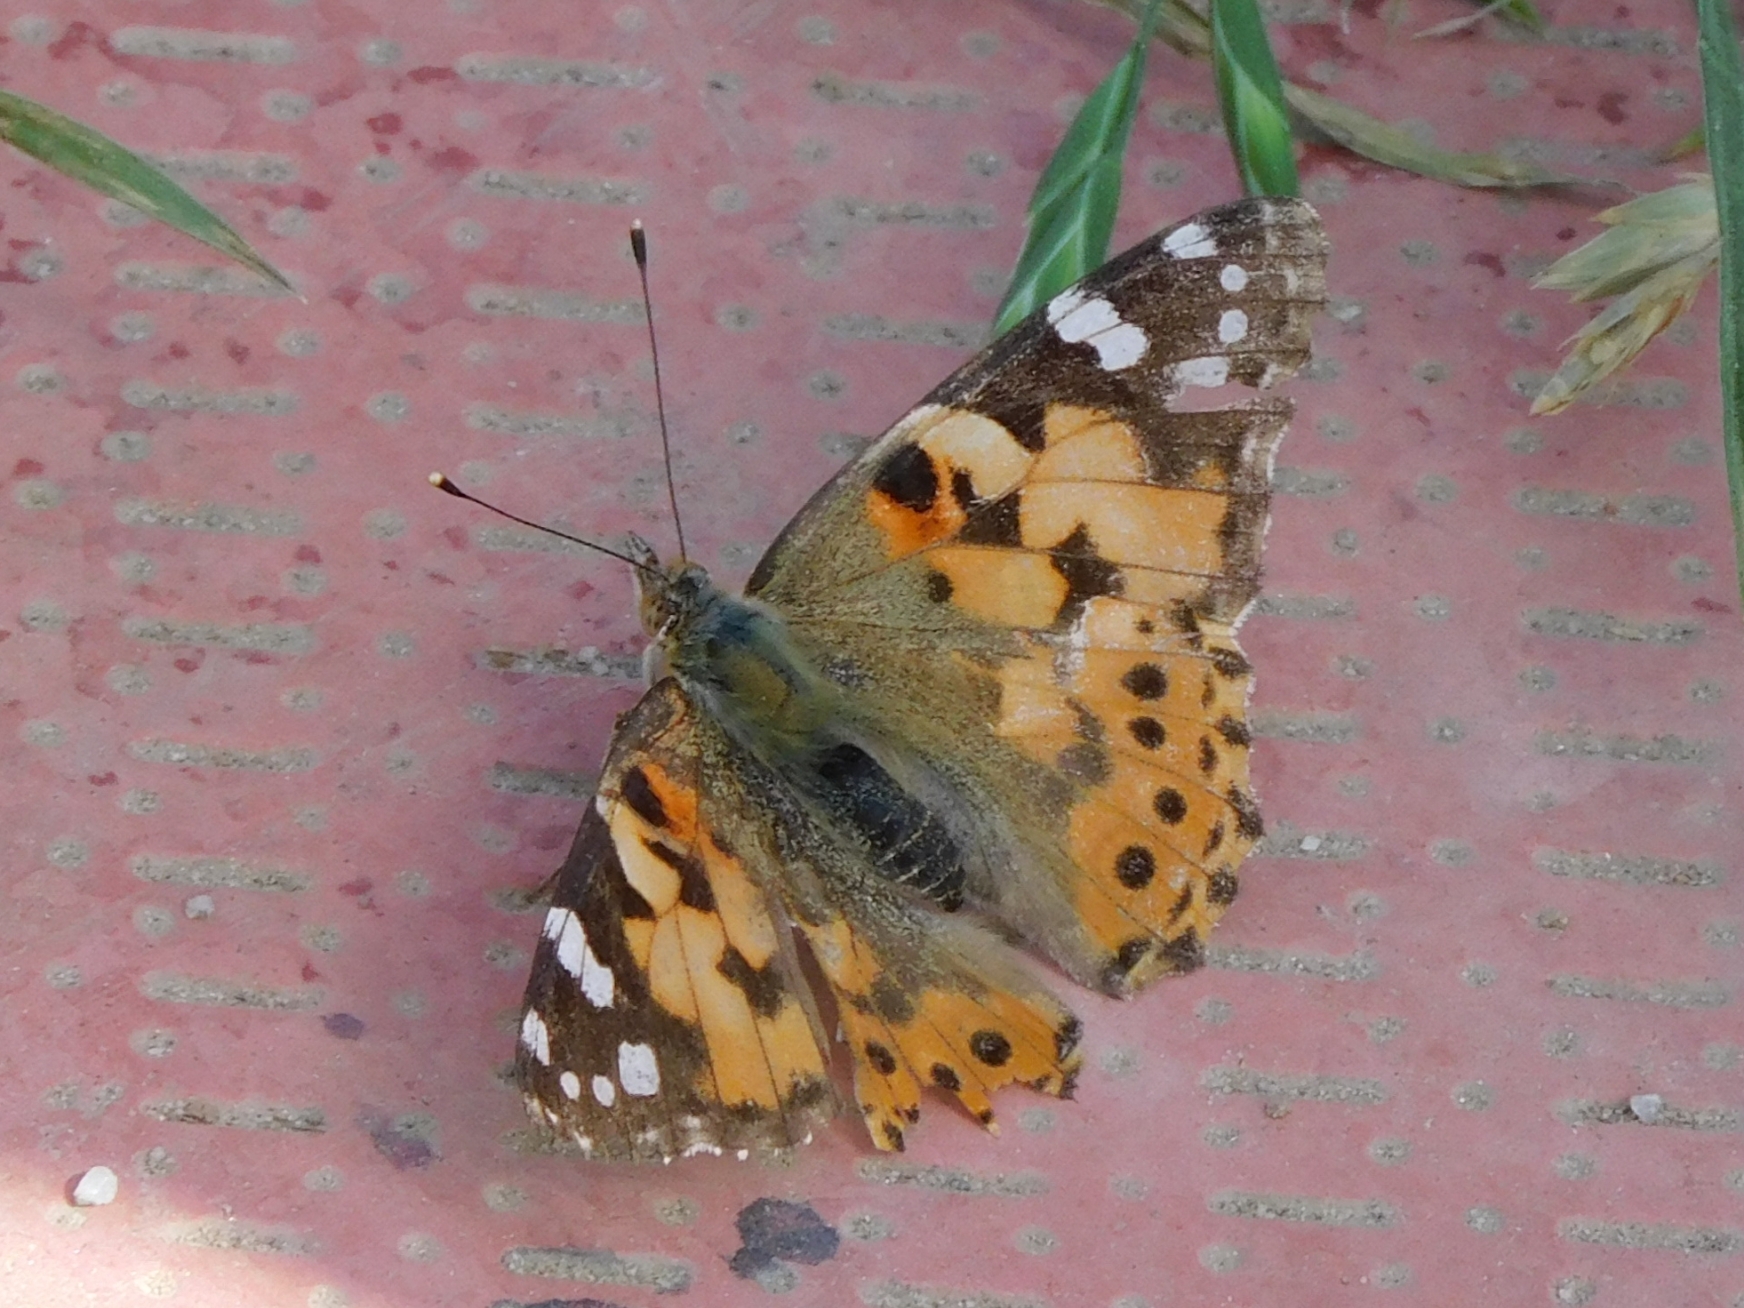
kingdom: Animalia
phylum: Arthropoda
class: Insecta
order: Lepidoptera
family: Nymphalidae
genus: Vanessa
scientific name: Vanessa cardui
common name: Painted lady
